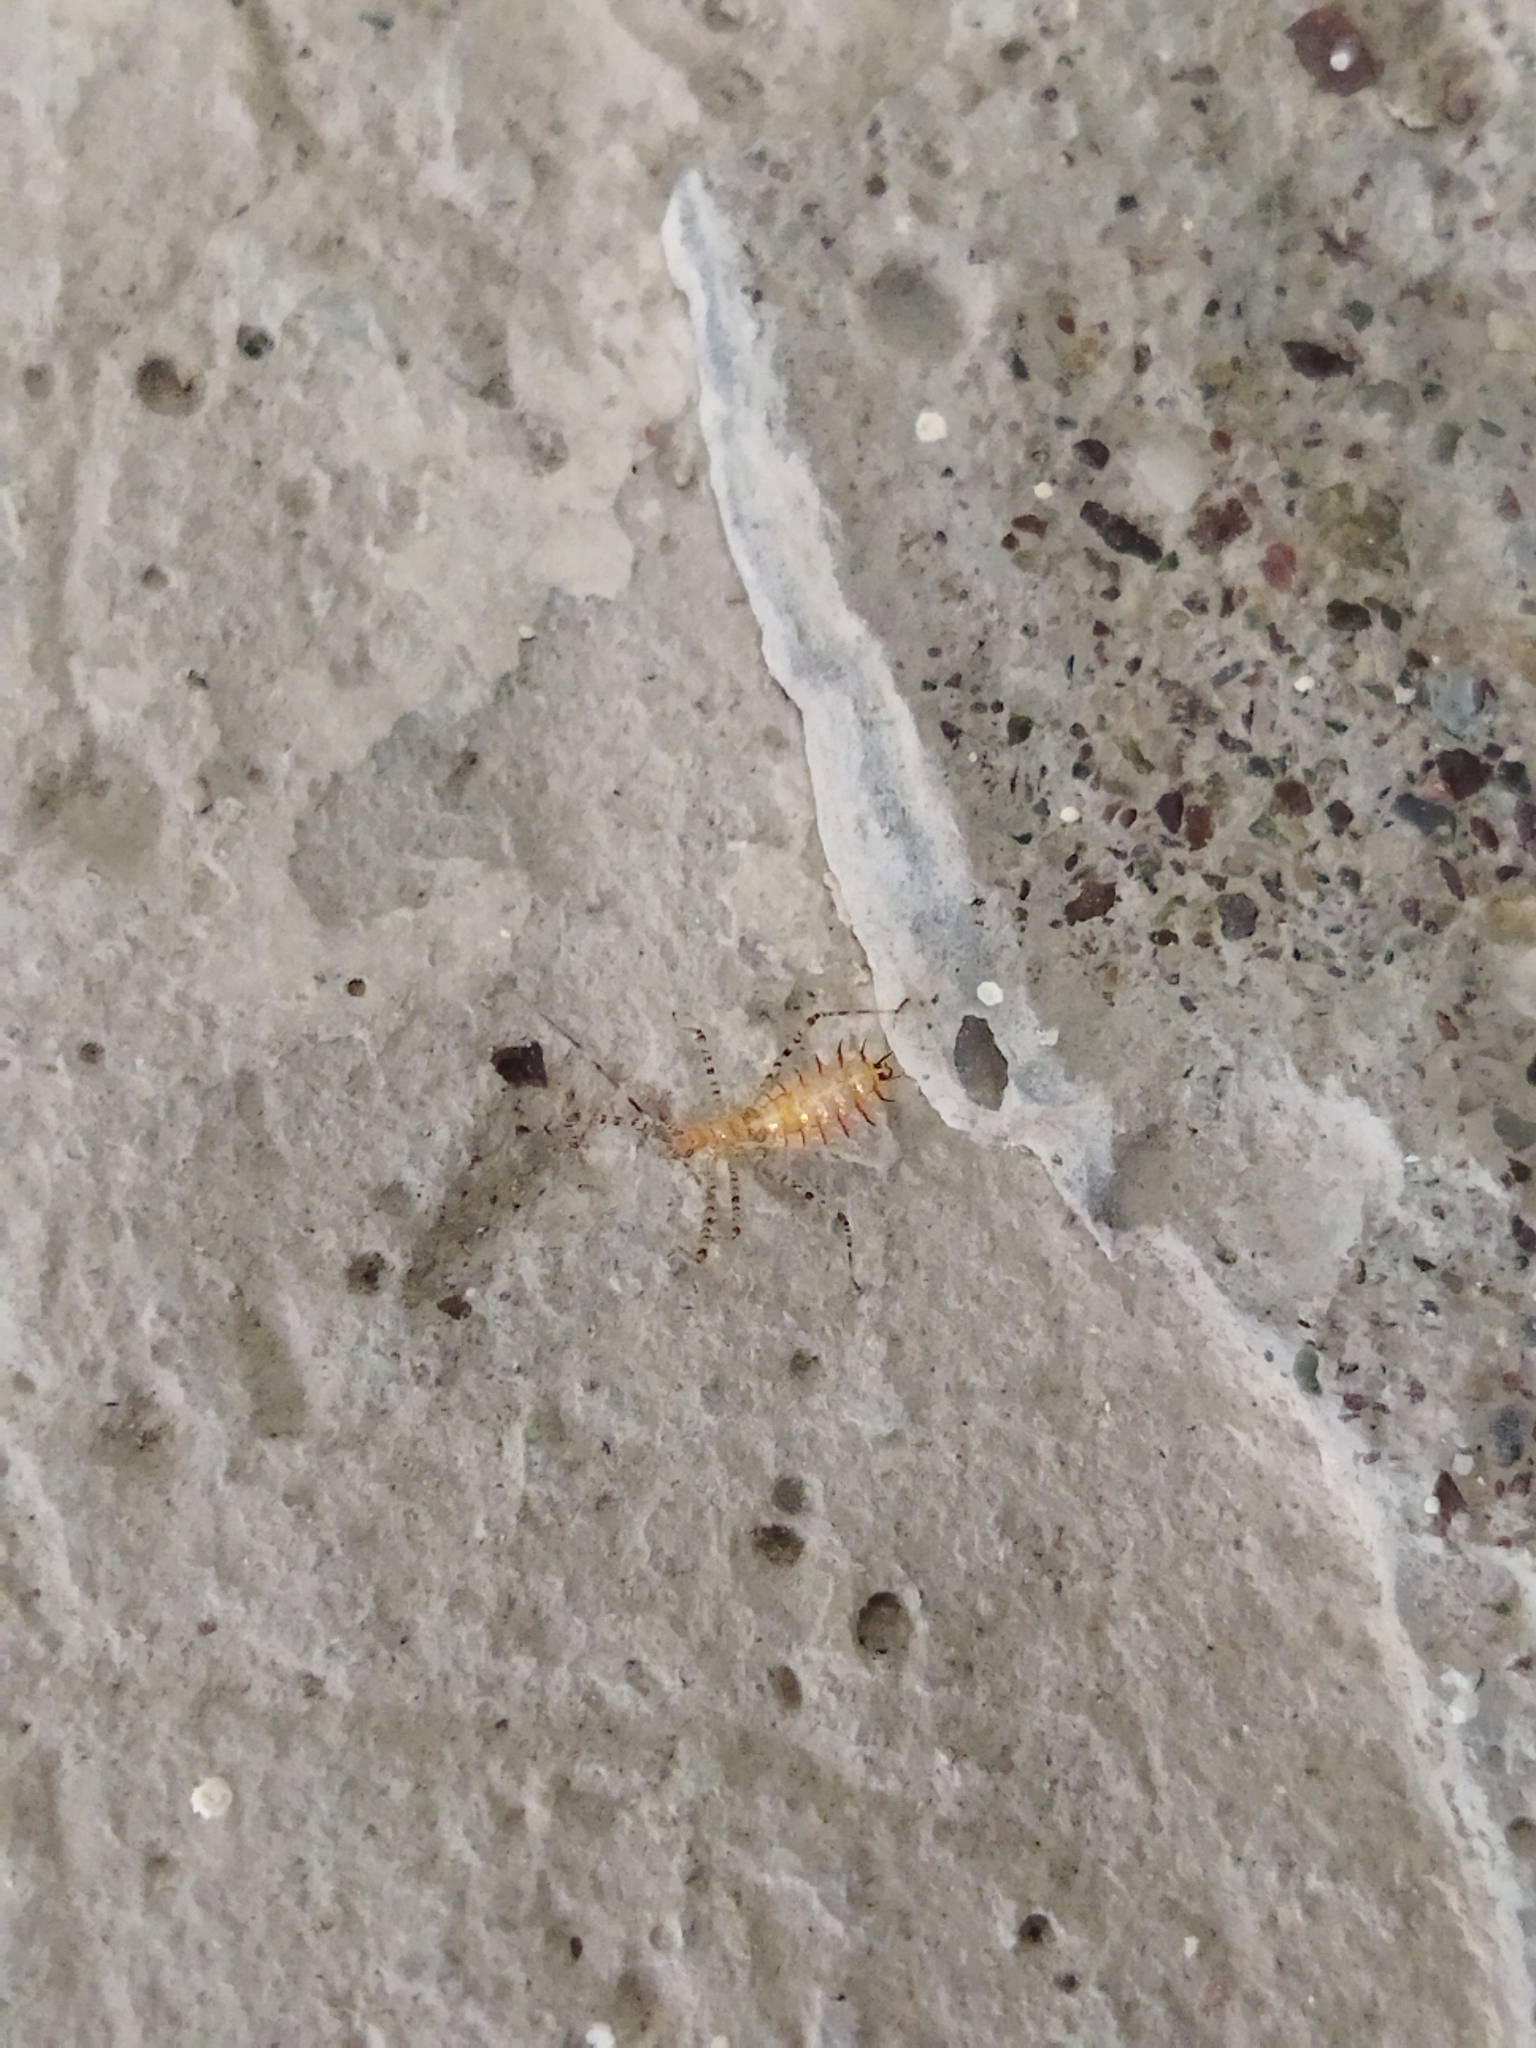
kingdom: Animalia
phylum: Arthropoda
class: Insecta
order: Hemiptera
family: Reduviidae
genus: Zelus
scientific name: Zelus renardii
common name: Assassin bug
